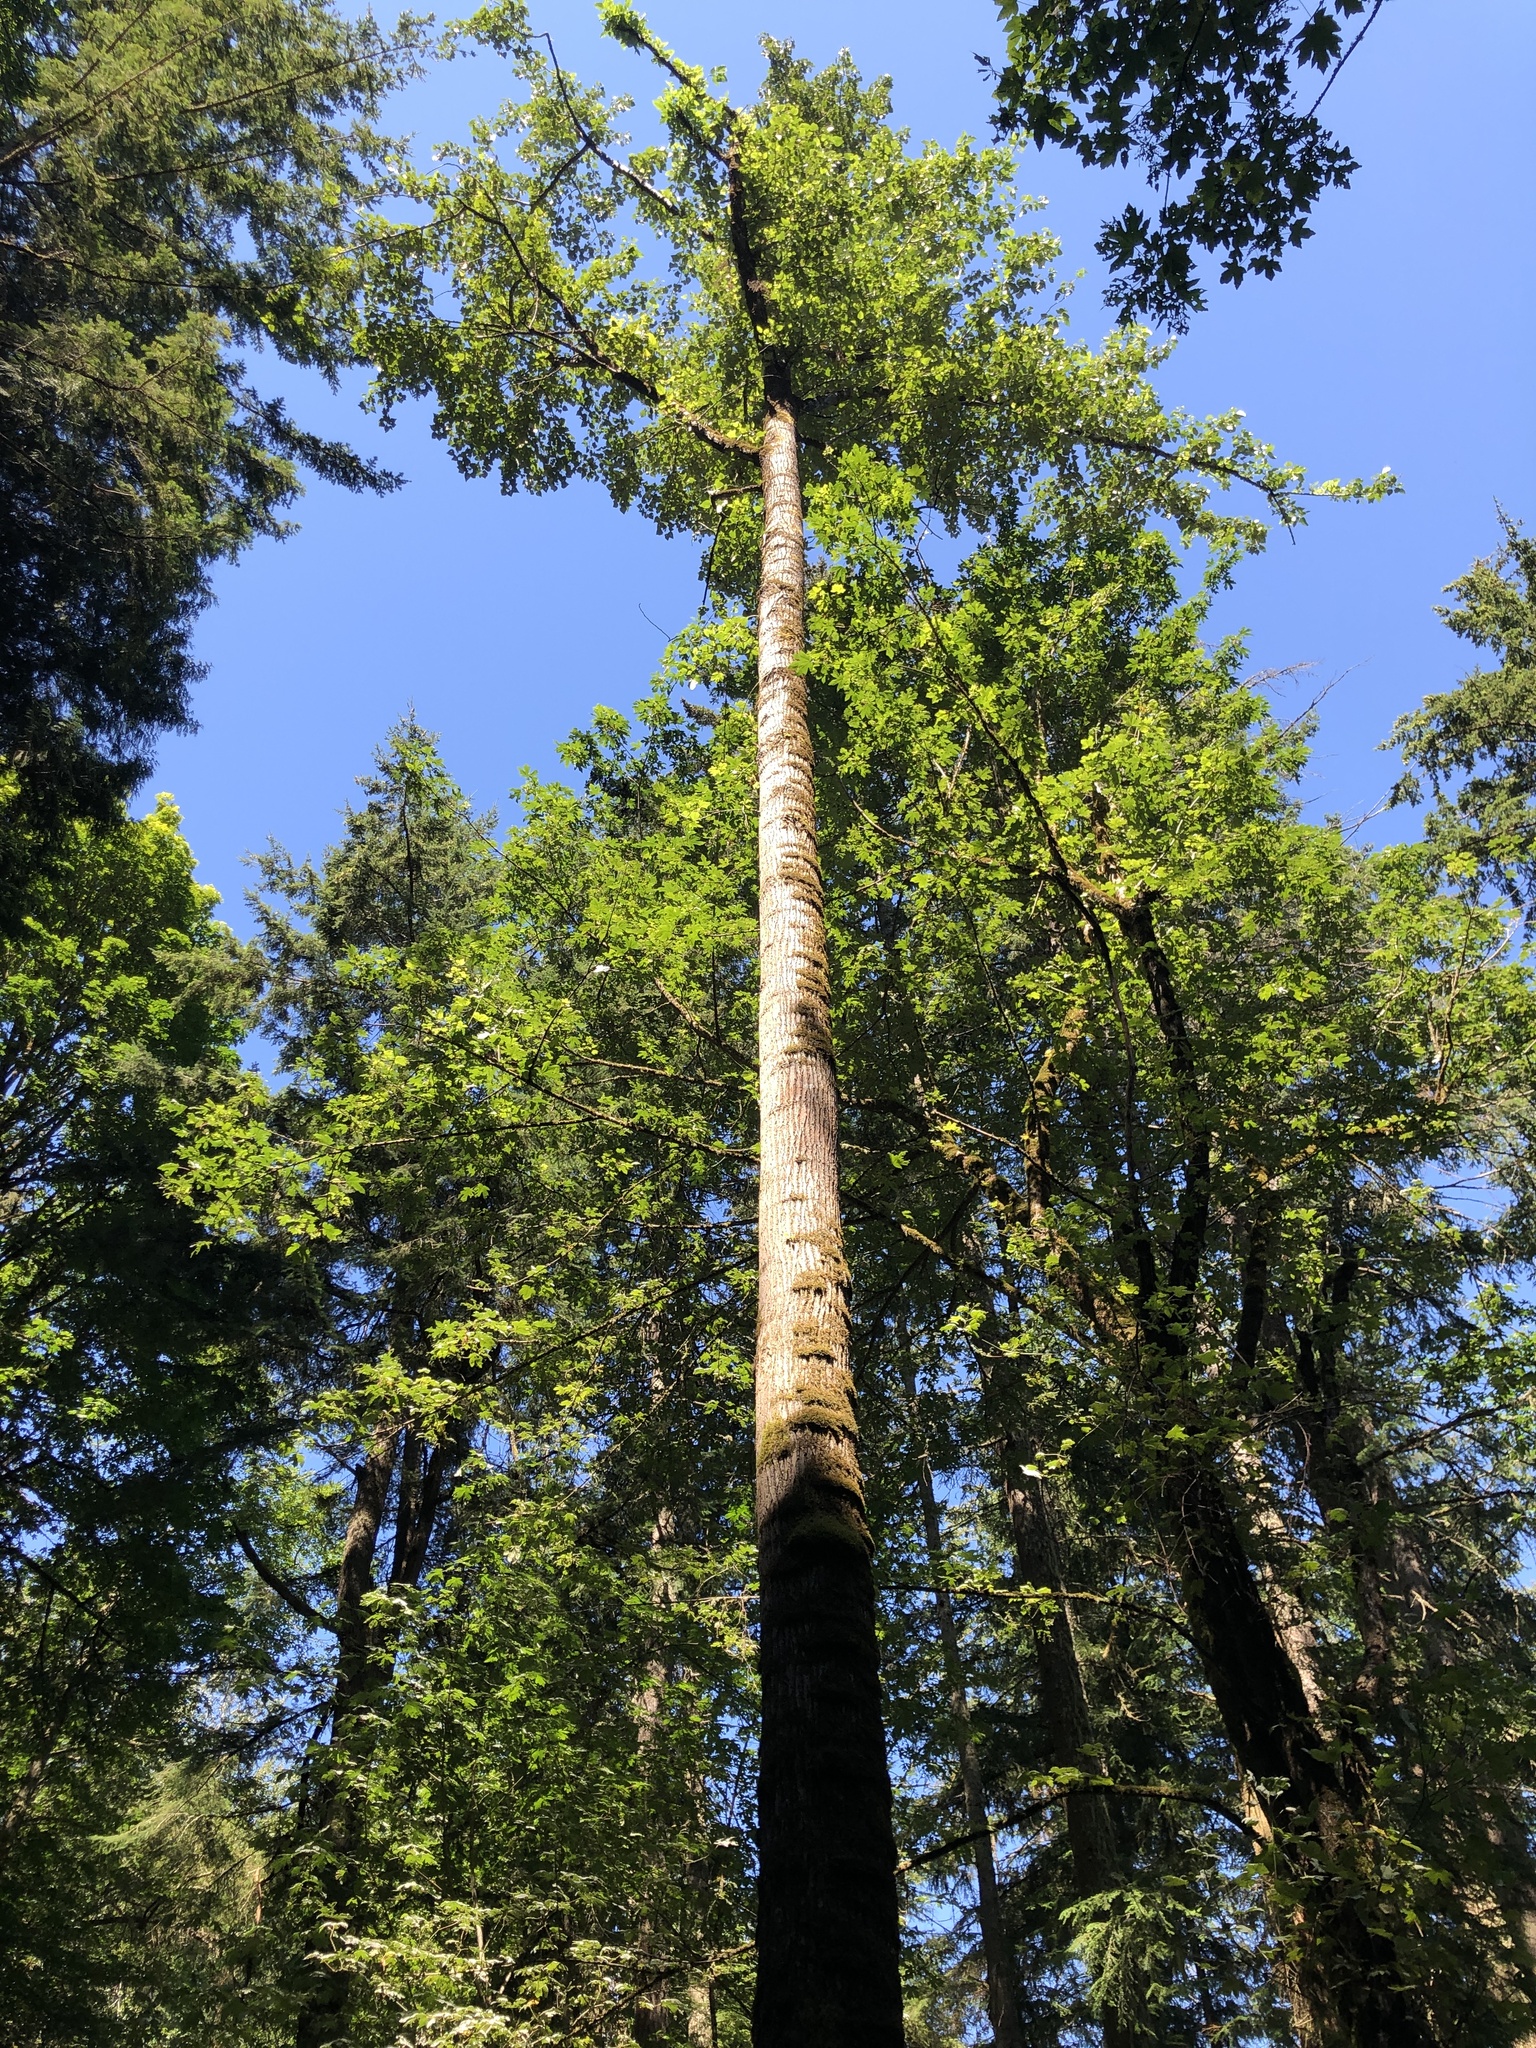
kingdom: Plantae
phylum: Tracheophyta
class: Magnoliopsida
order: Malpighiales
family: Salicaceae
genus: Populus
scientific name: Populus trichocarpa
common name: Black cottonwood
